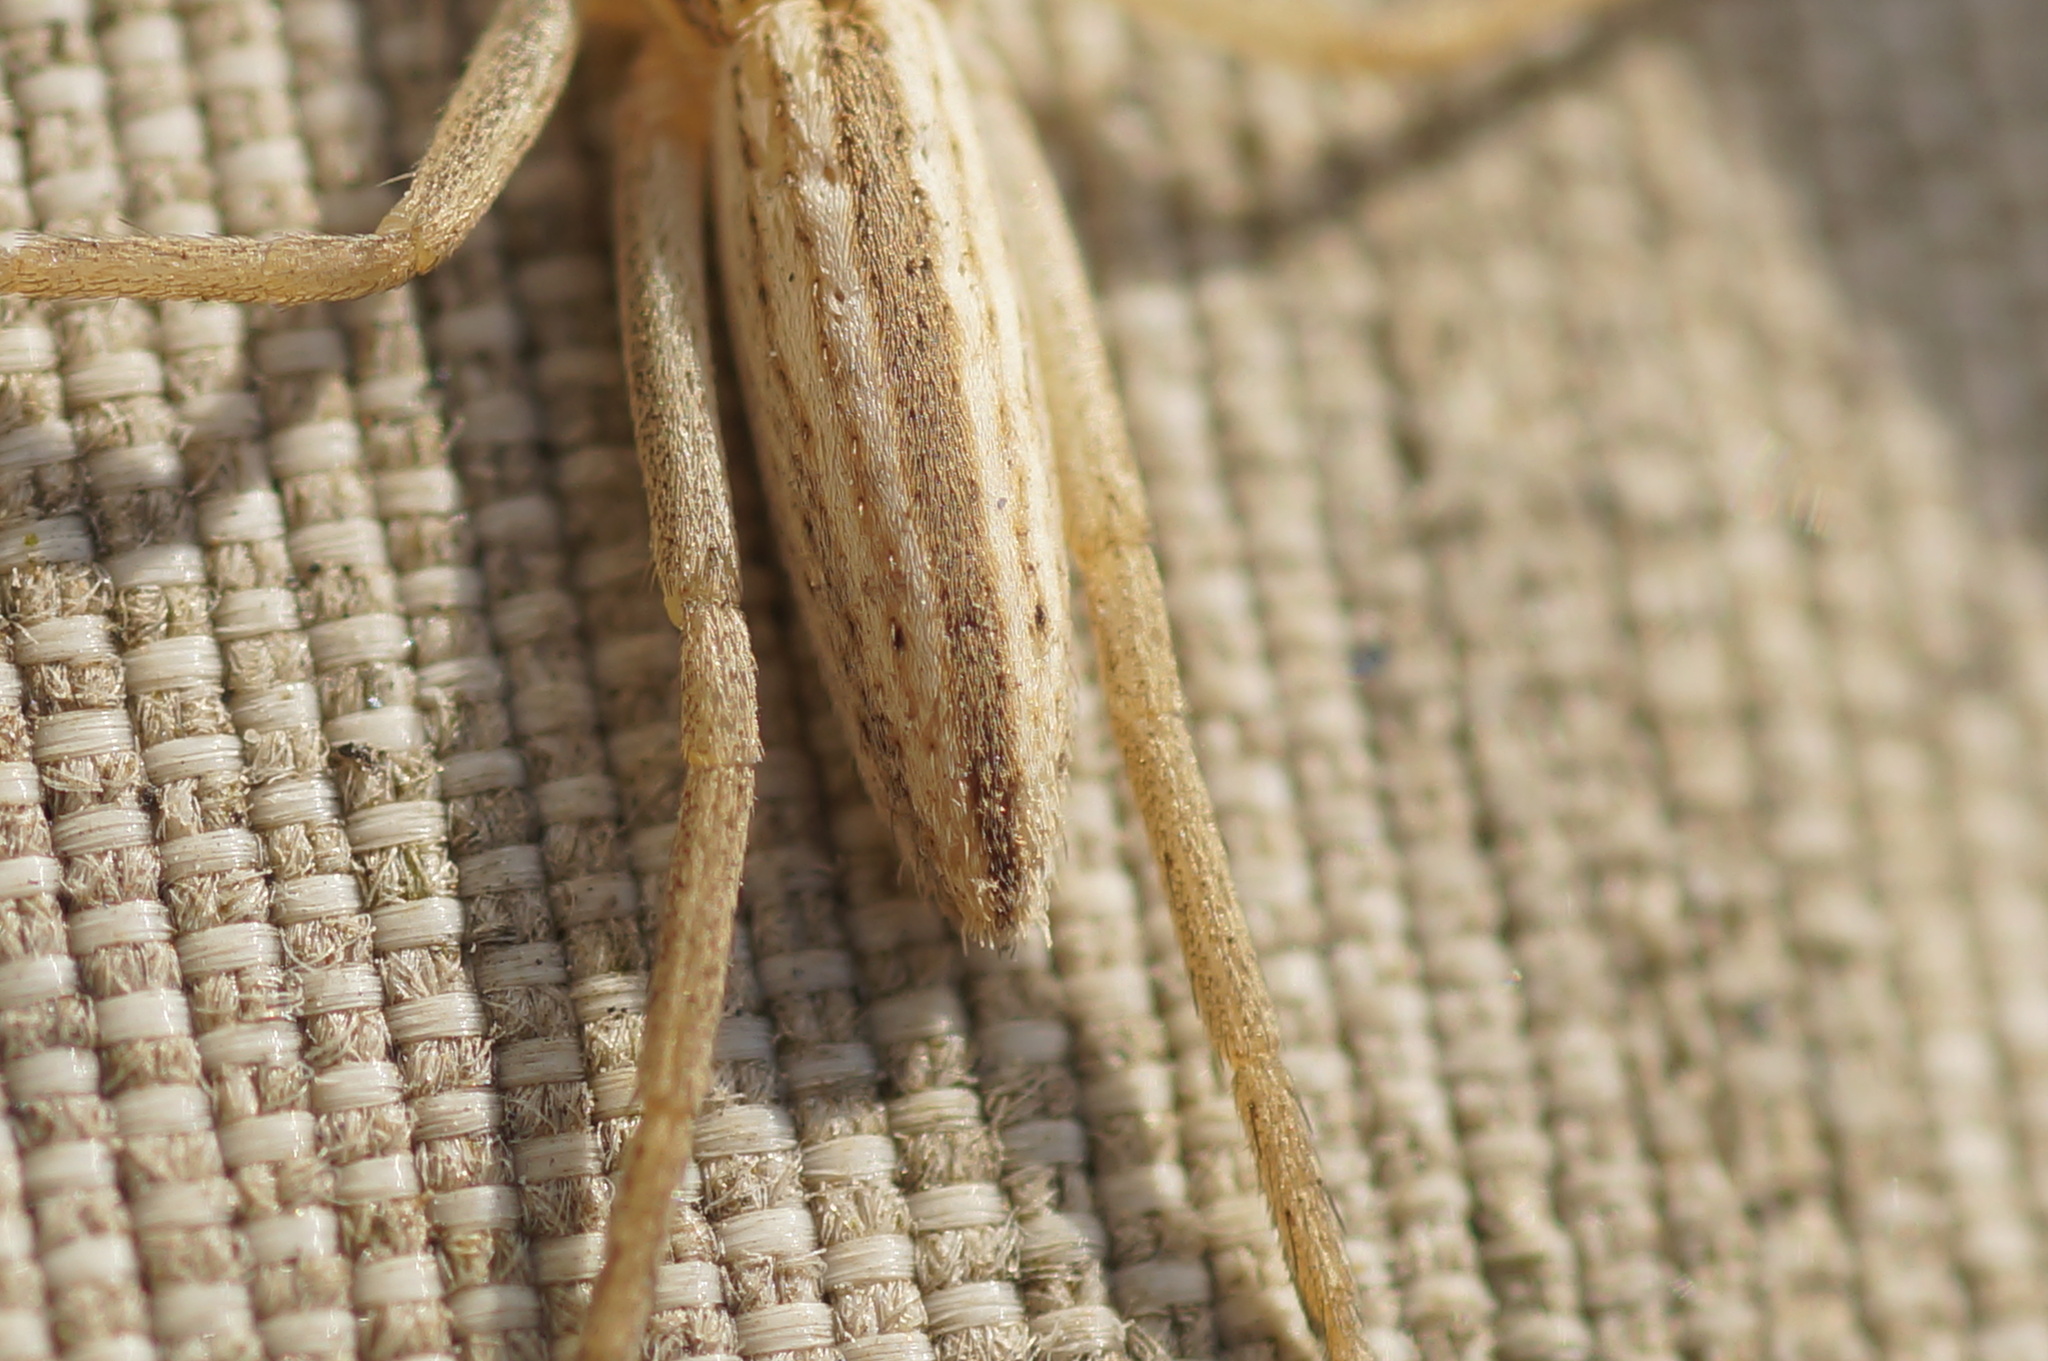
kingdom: Animalia
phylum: Arthropoda
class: Arachnida
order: Araneae
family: Philodromidae
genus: Tibellus
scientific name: Tibellus
